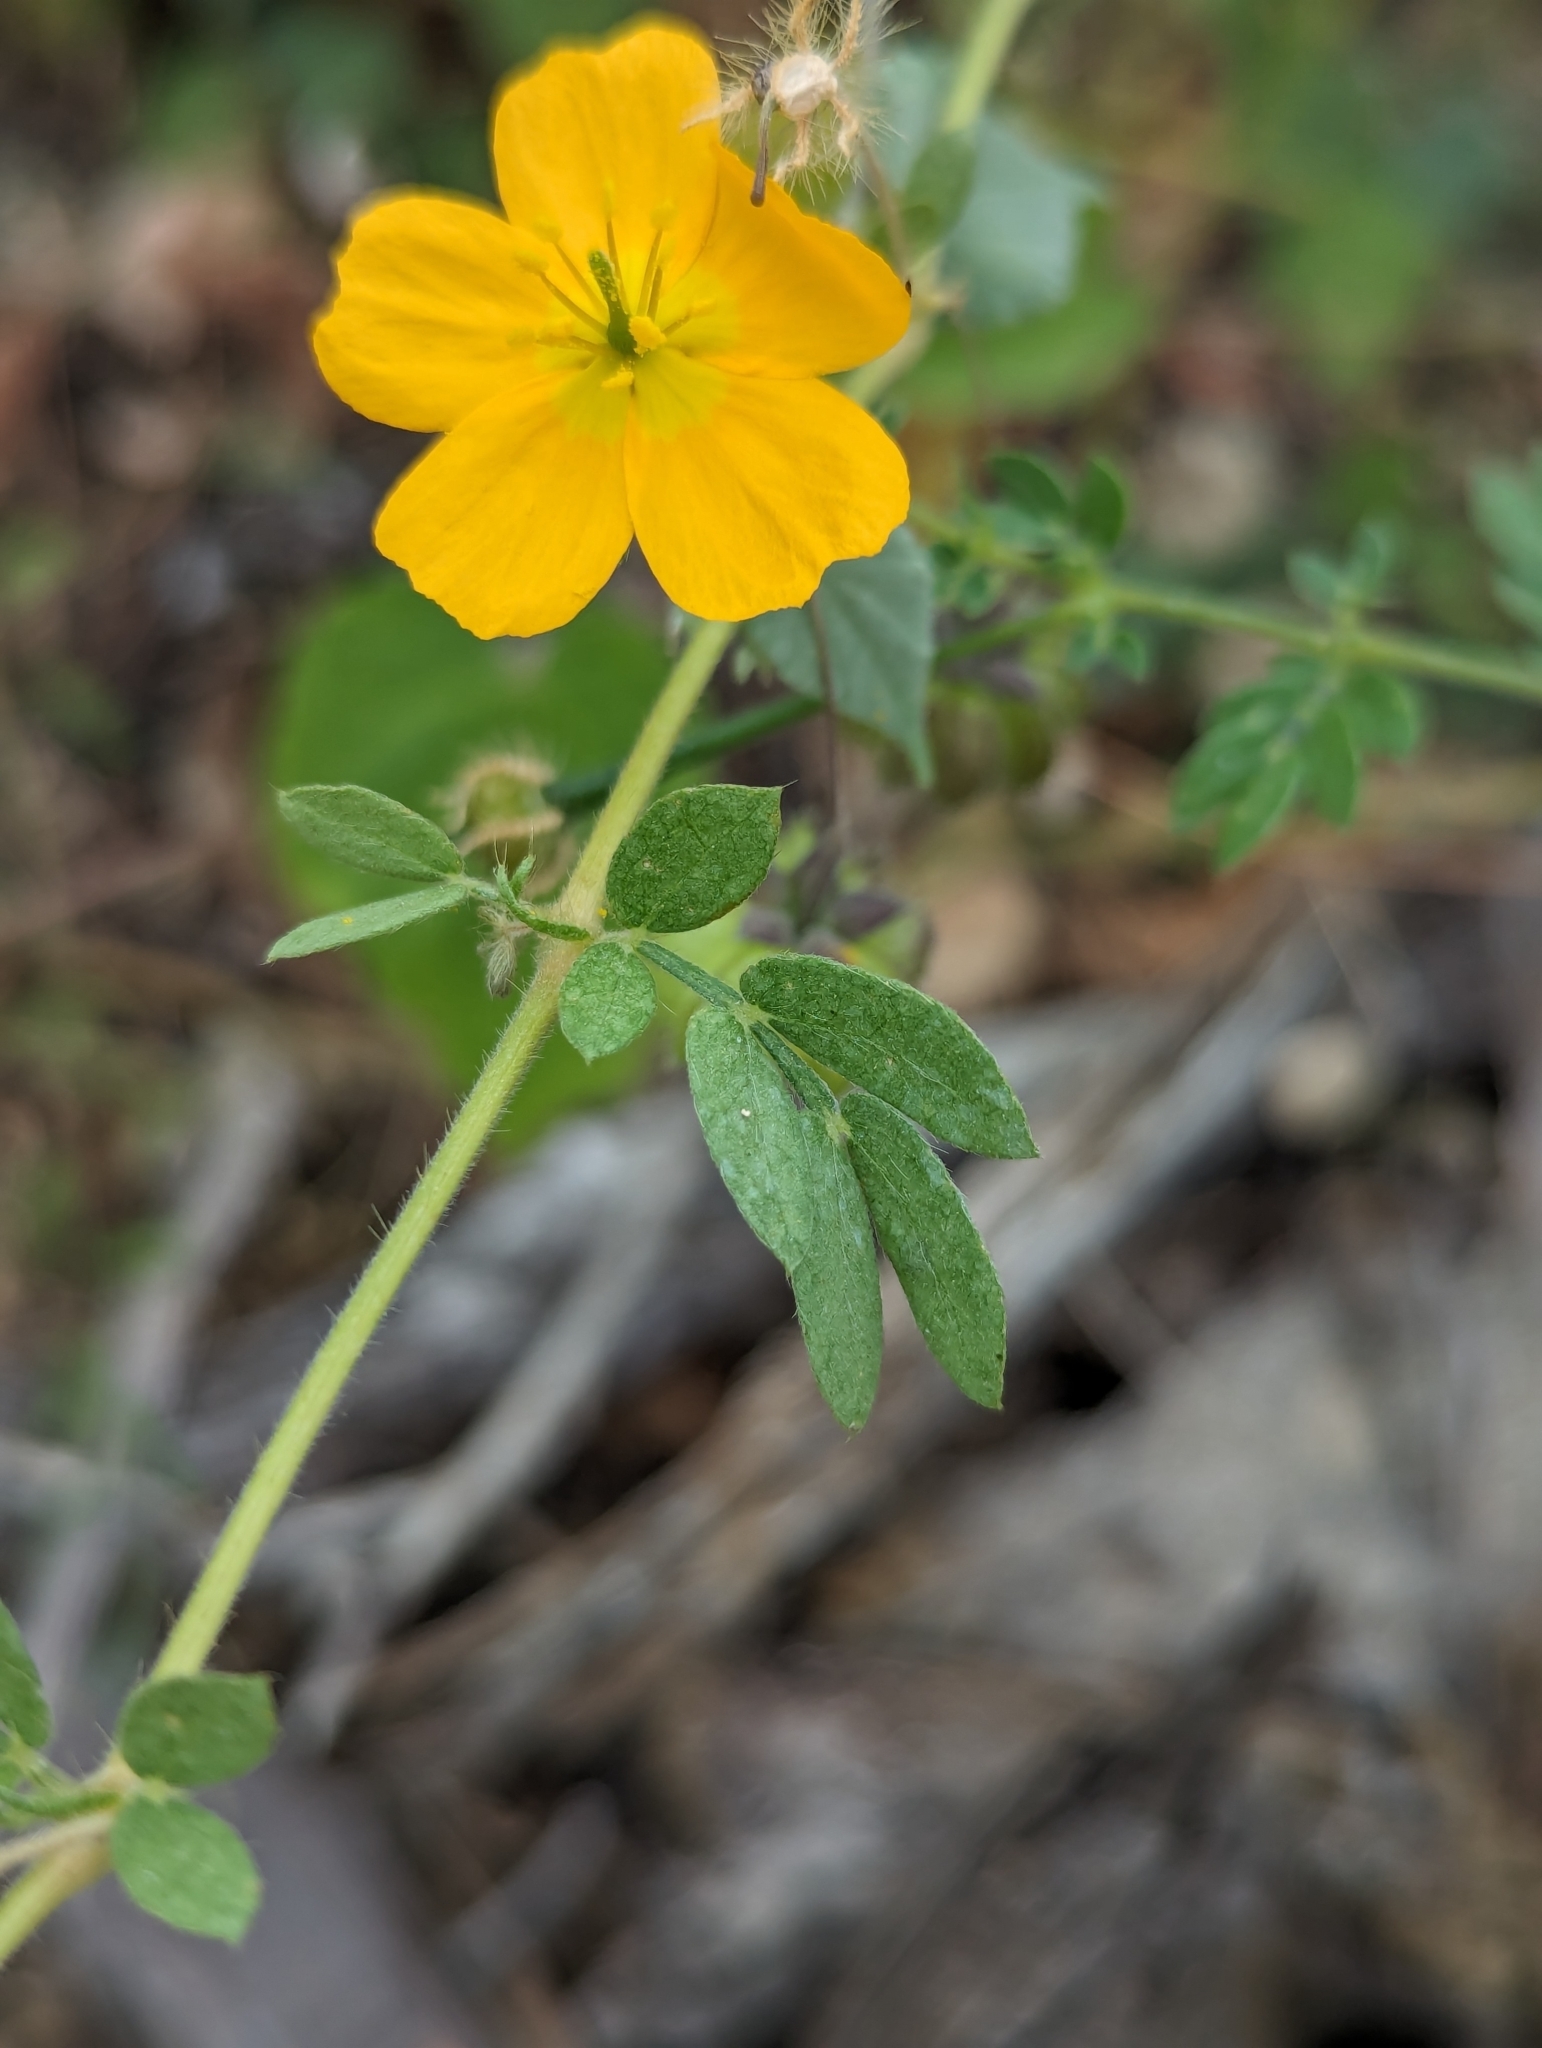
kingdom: Plantae
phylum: Tracheophyta
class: Magnoliopsida
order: Zygophyllales
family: Zygophyllaceae
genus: Kallstroemia
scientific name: Kallstroemia peninsularis
